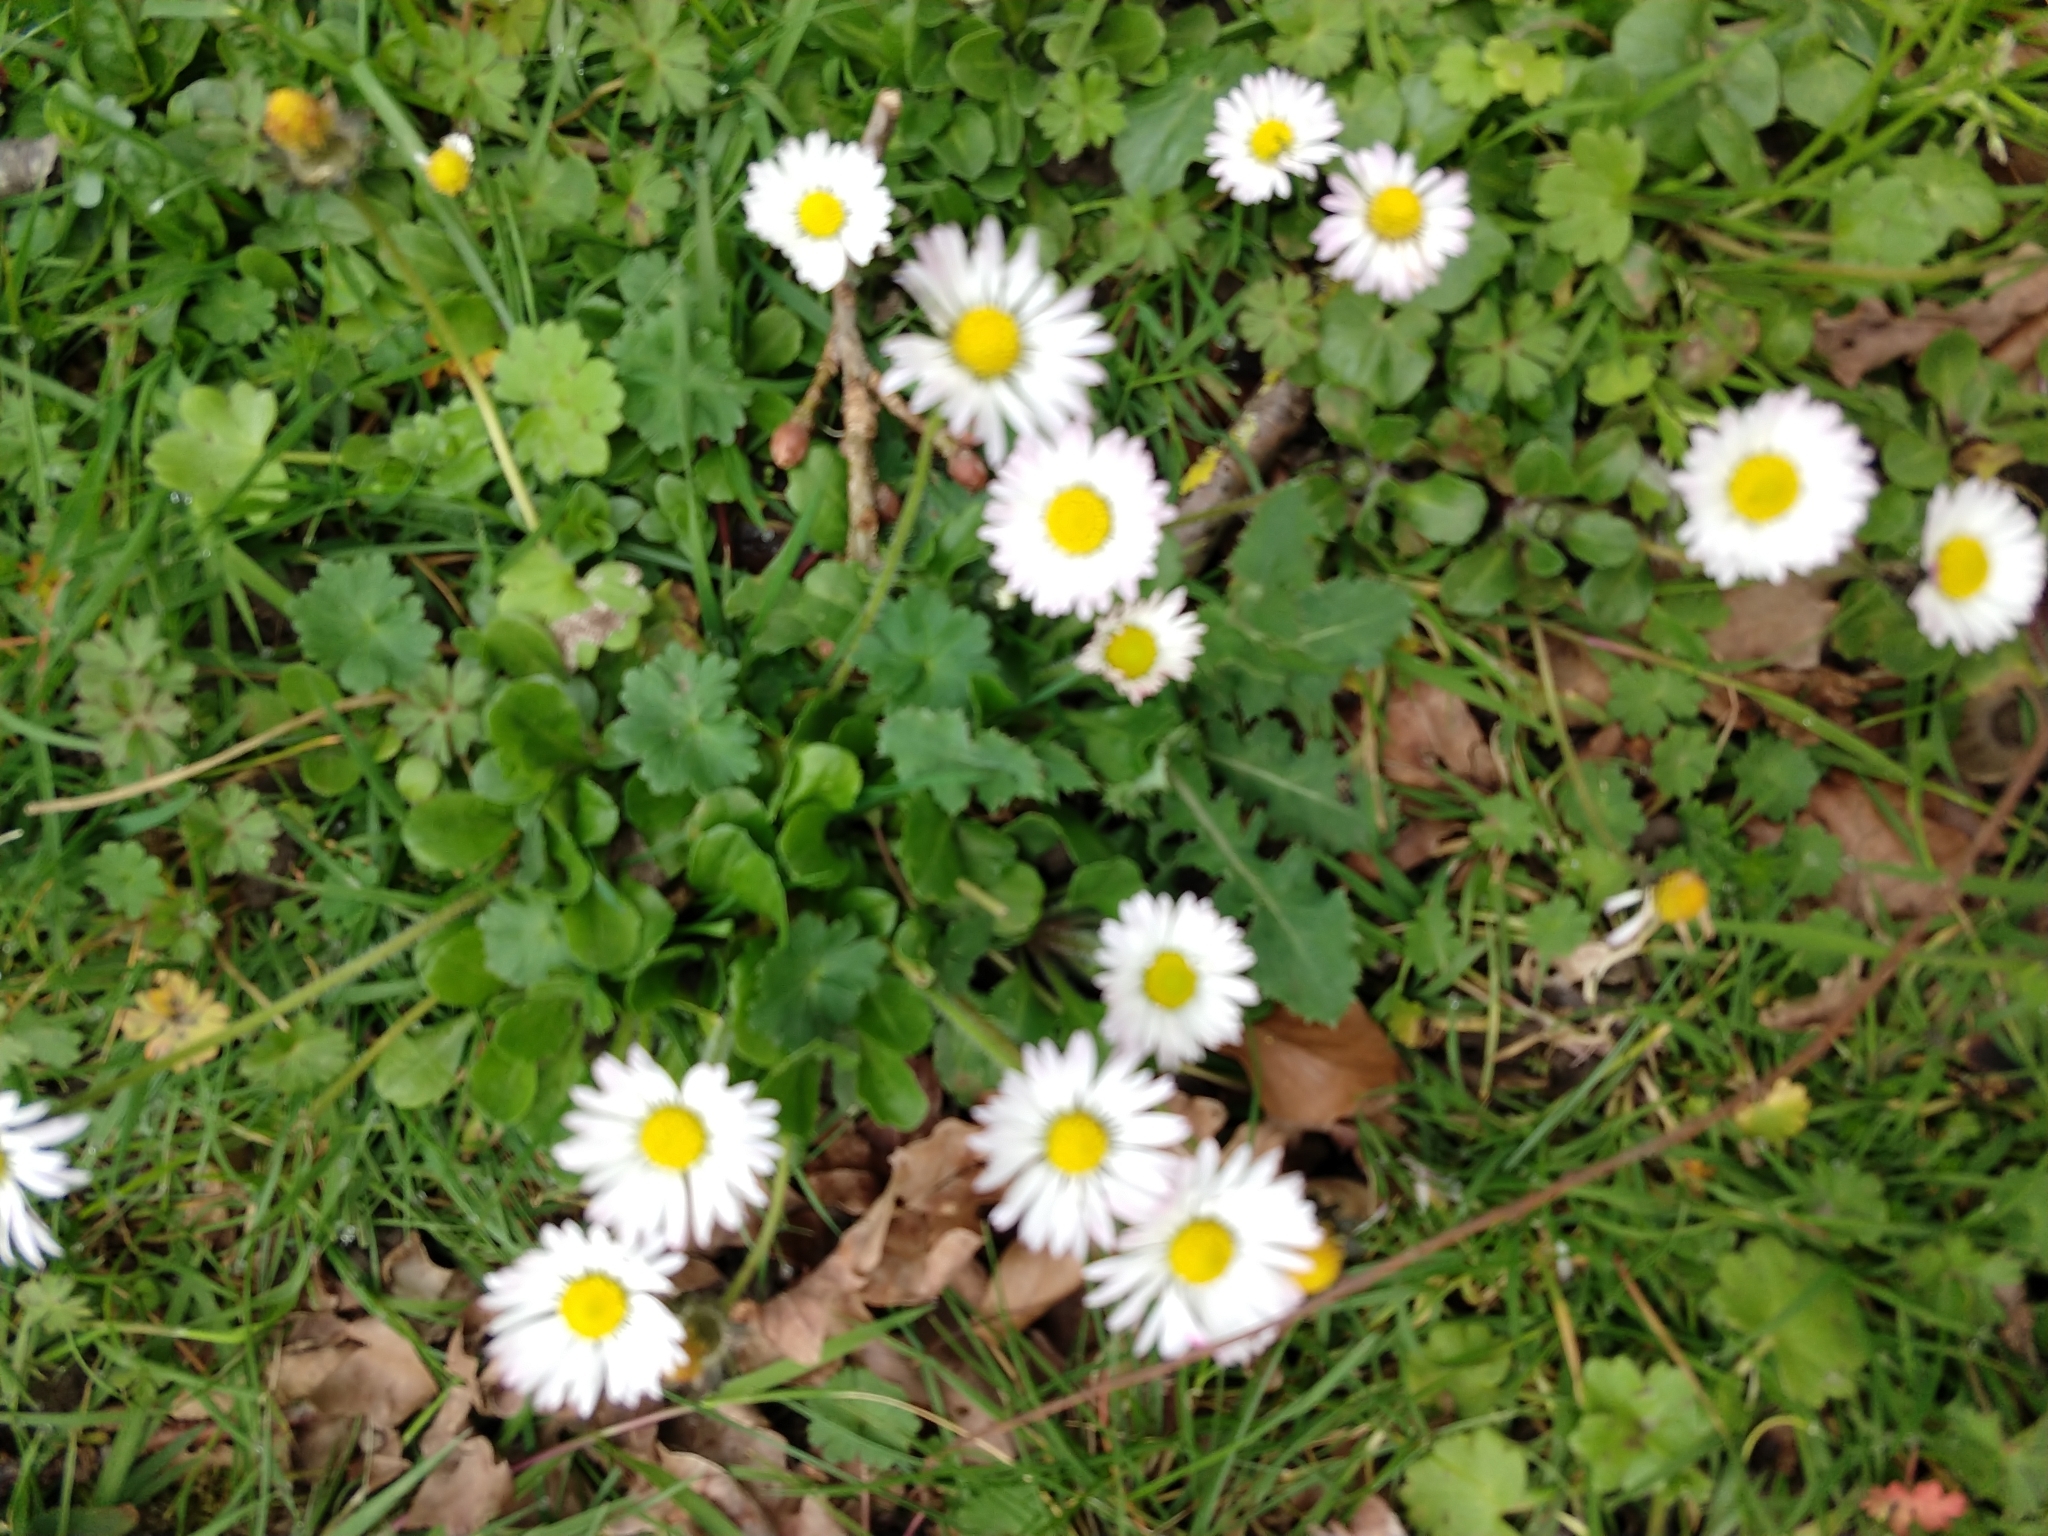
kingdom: Plantae
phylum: Tracheophyta
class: Magnoliopsida
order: Asterales
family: Asteraceae
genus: Bellis
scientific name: Bellis perennis
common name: Lawndaisy
